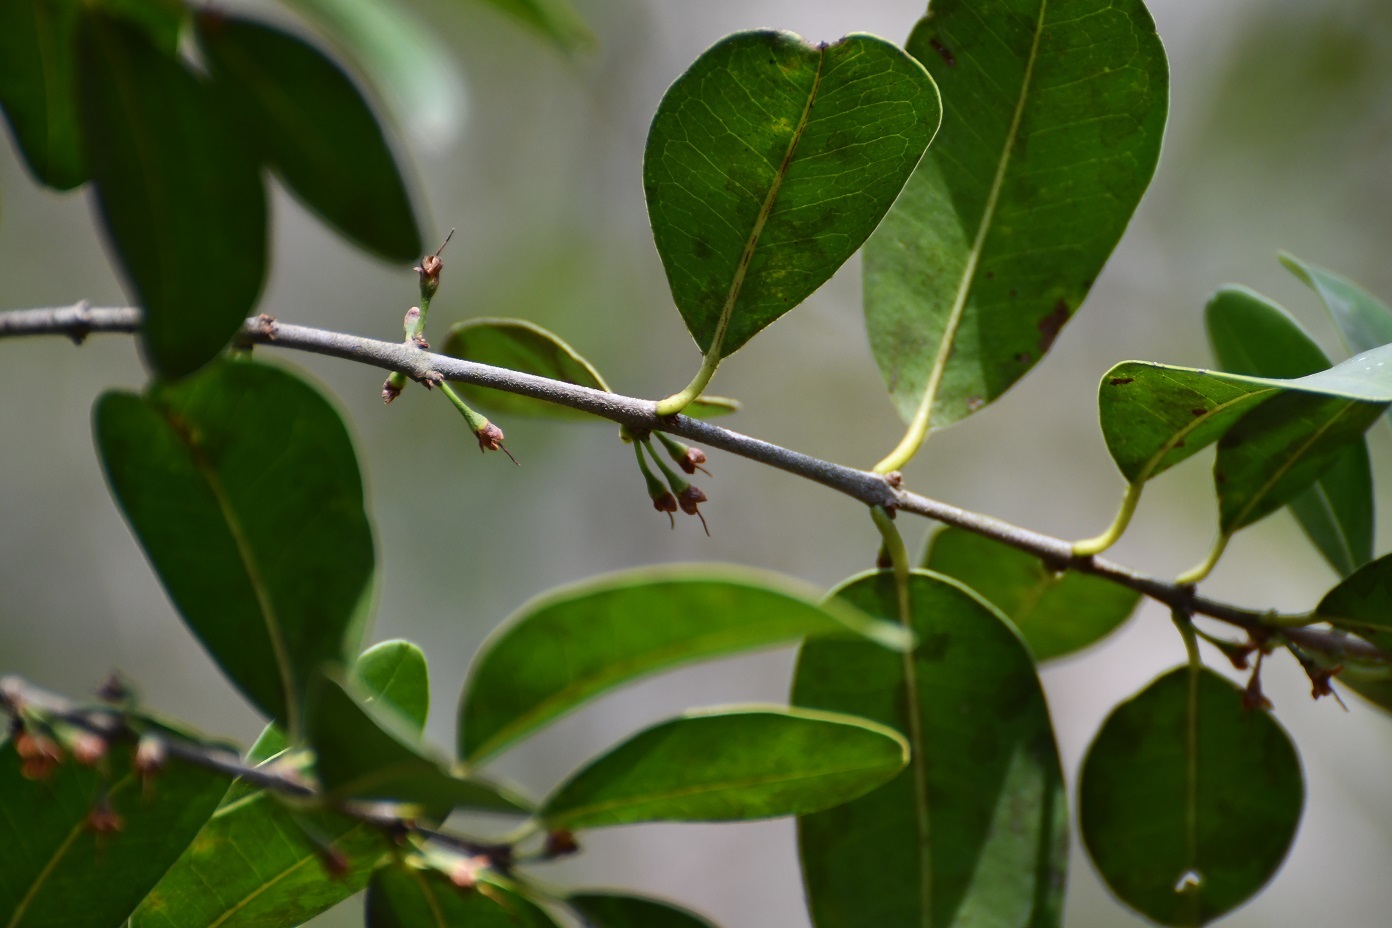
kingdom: Plantae
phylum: Tracheophyta
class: Magnoliopsida
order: Santalales
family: Ximeniaceae
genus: Ximenia
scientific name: Ximenia americana
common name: Tallowwood
